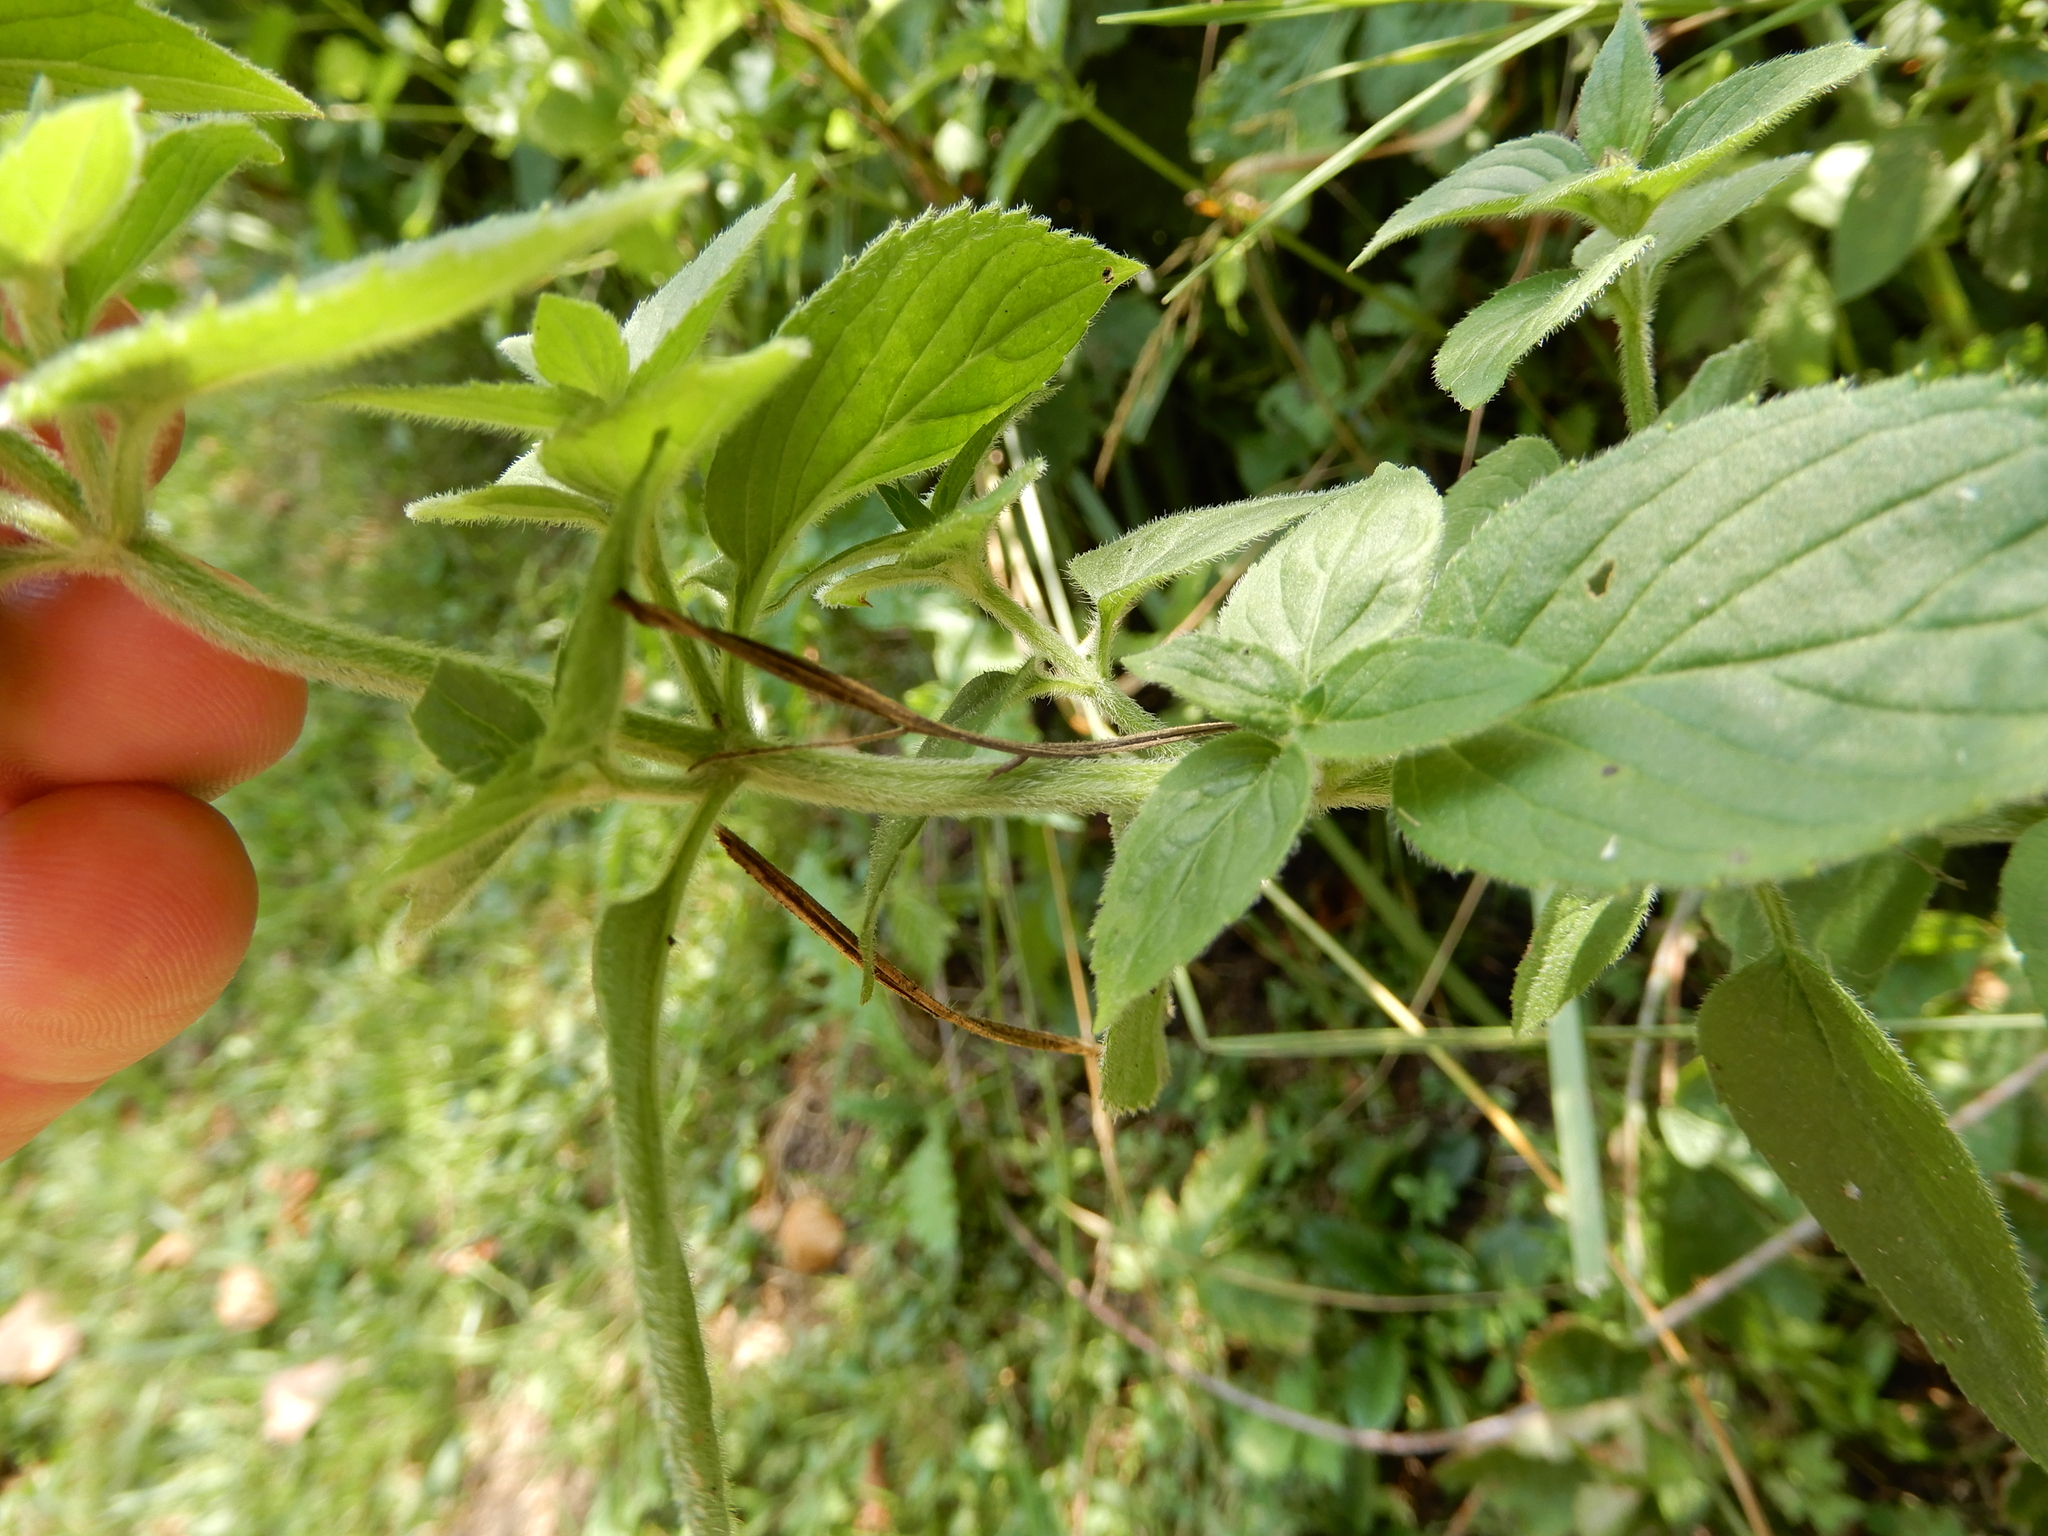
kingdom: Plantae
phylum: Tracheophyta
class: Magnoliopsida
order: Lamiales
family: Lamiaceae
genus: Mentha
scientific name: Mentha aquatica
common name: Water mint
